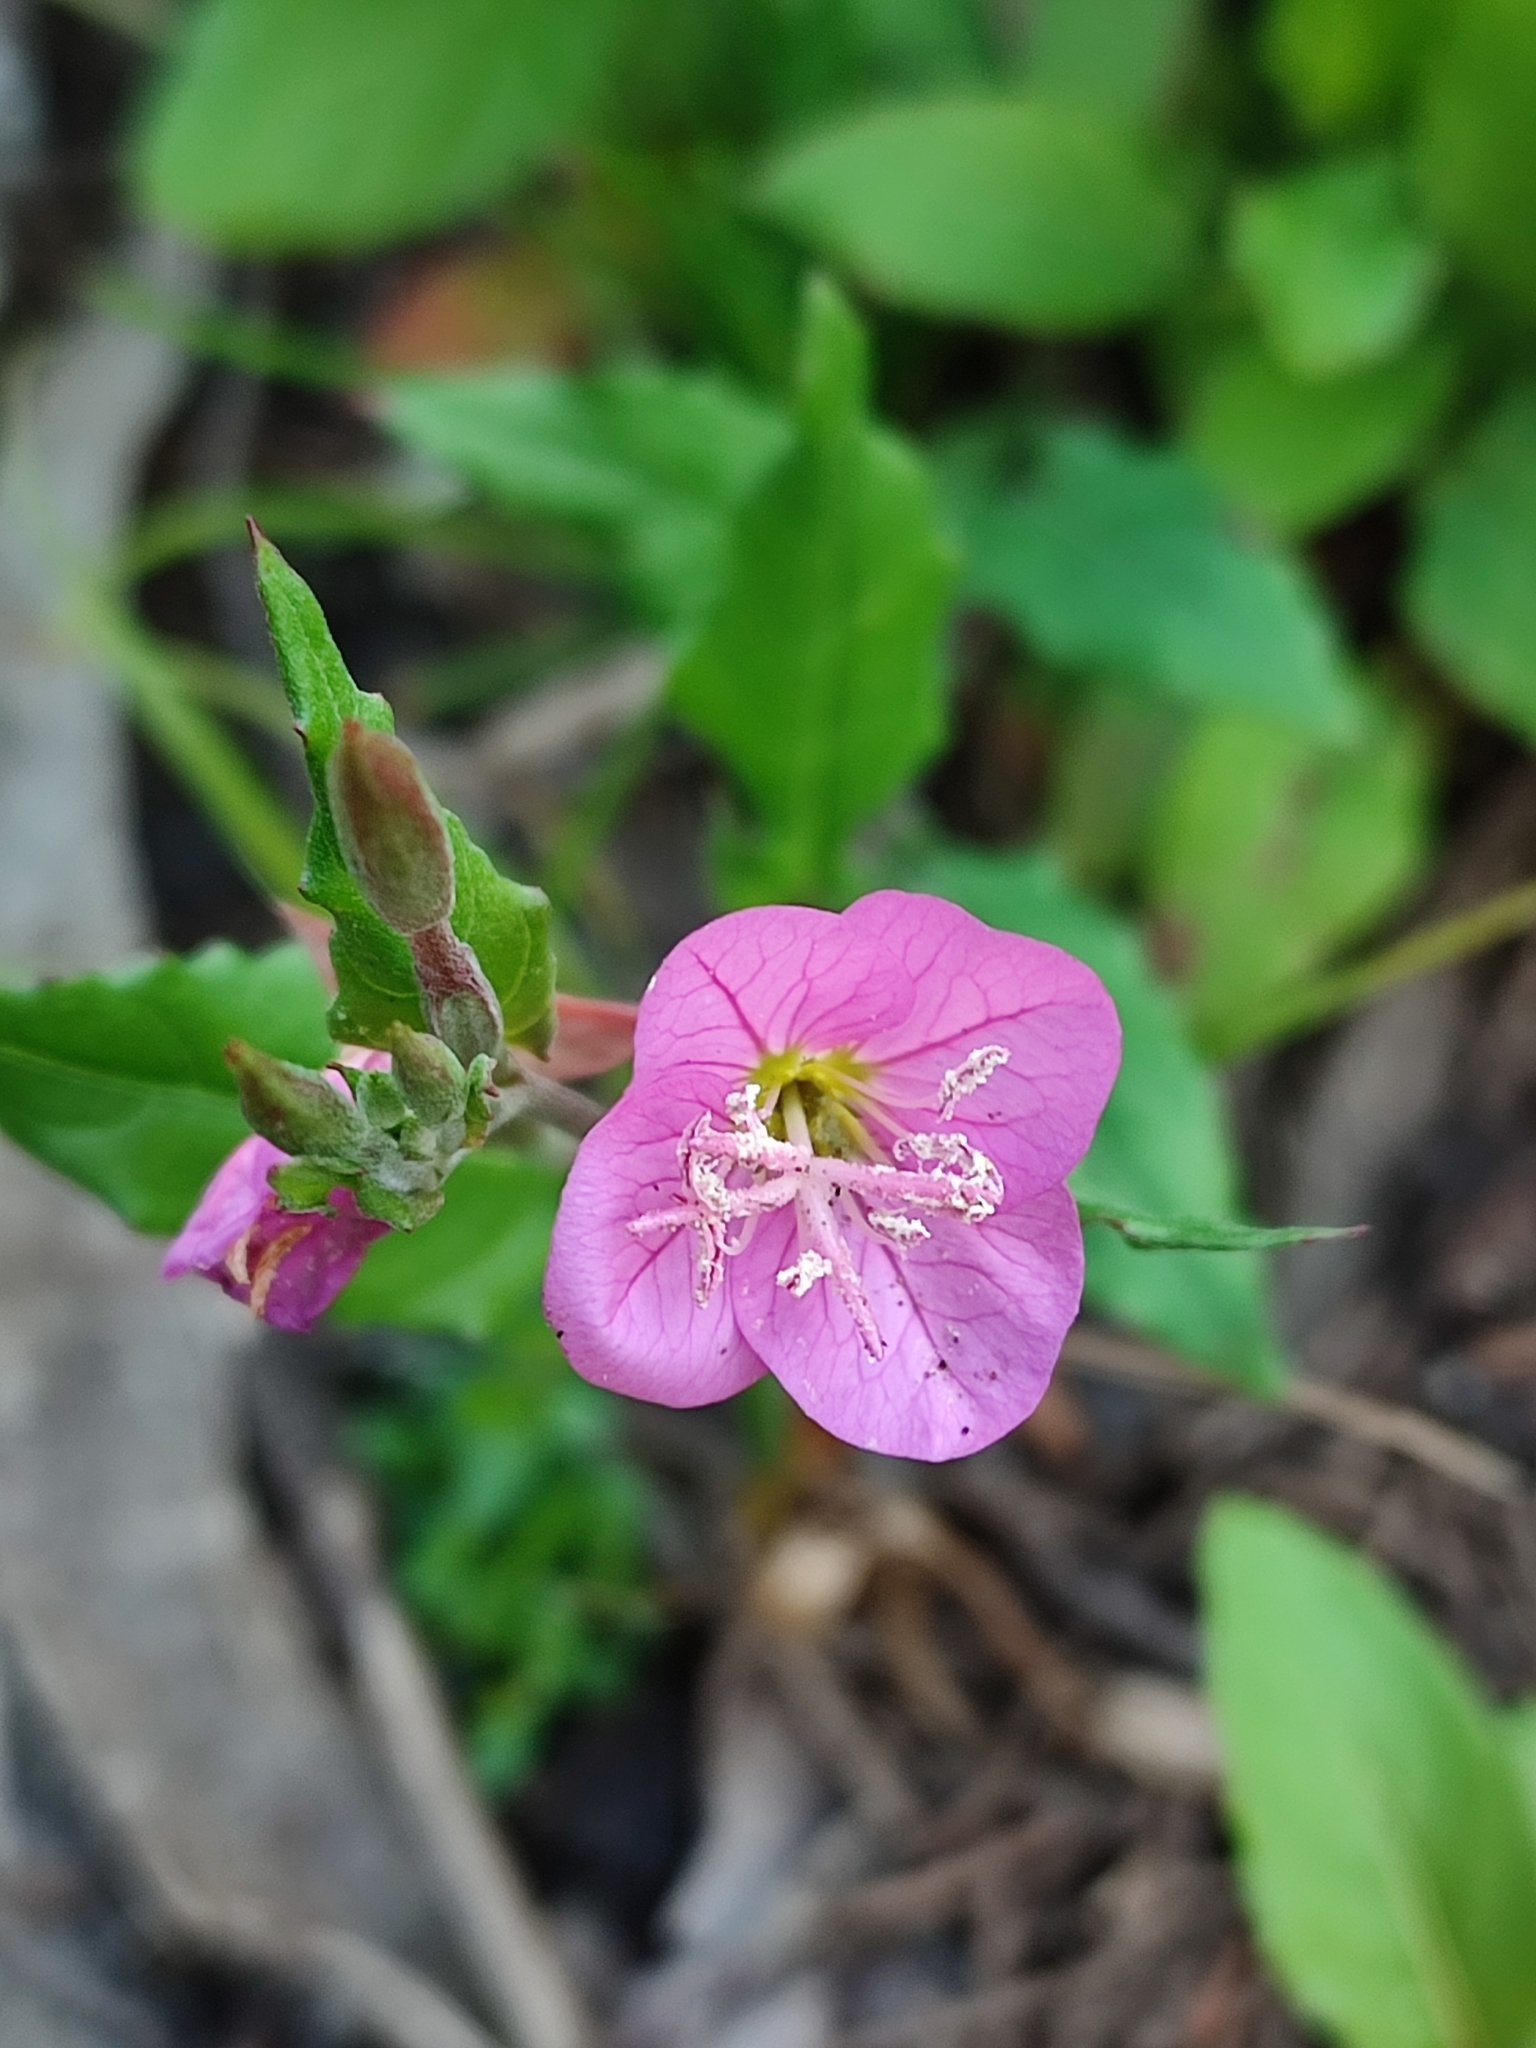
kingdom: Plantae
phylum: Tracheophyta
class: Magnoliopsida
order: Myrtales
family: Onagraceae
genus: Oenothera
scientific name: Oenothera rosea
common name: Rosy evening-primrose
